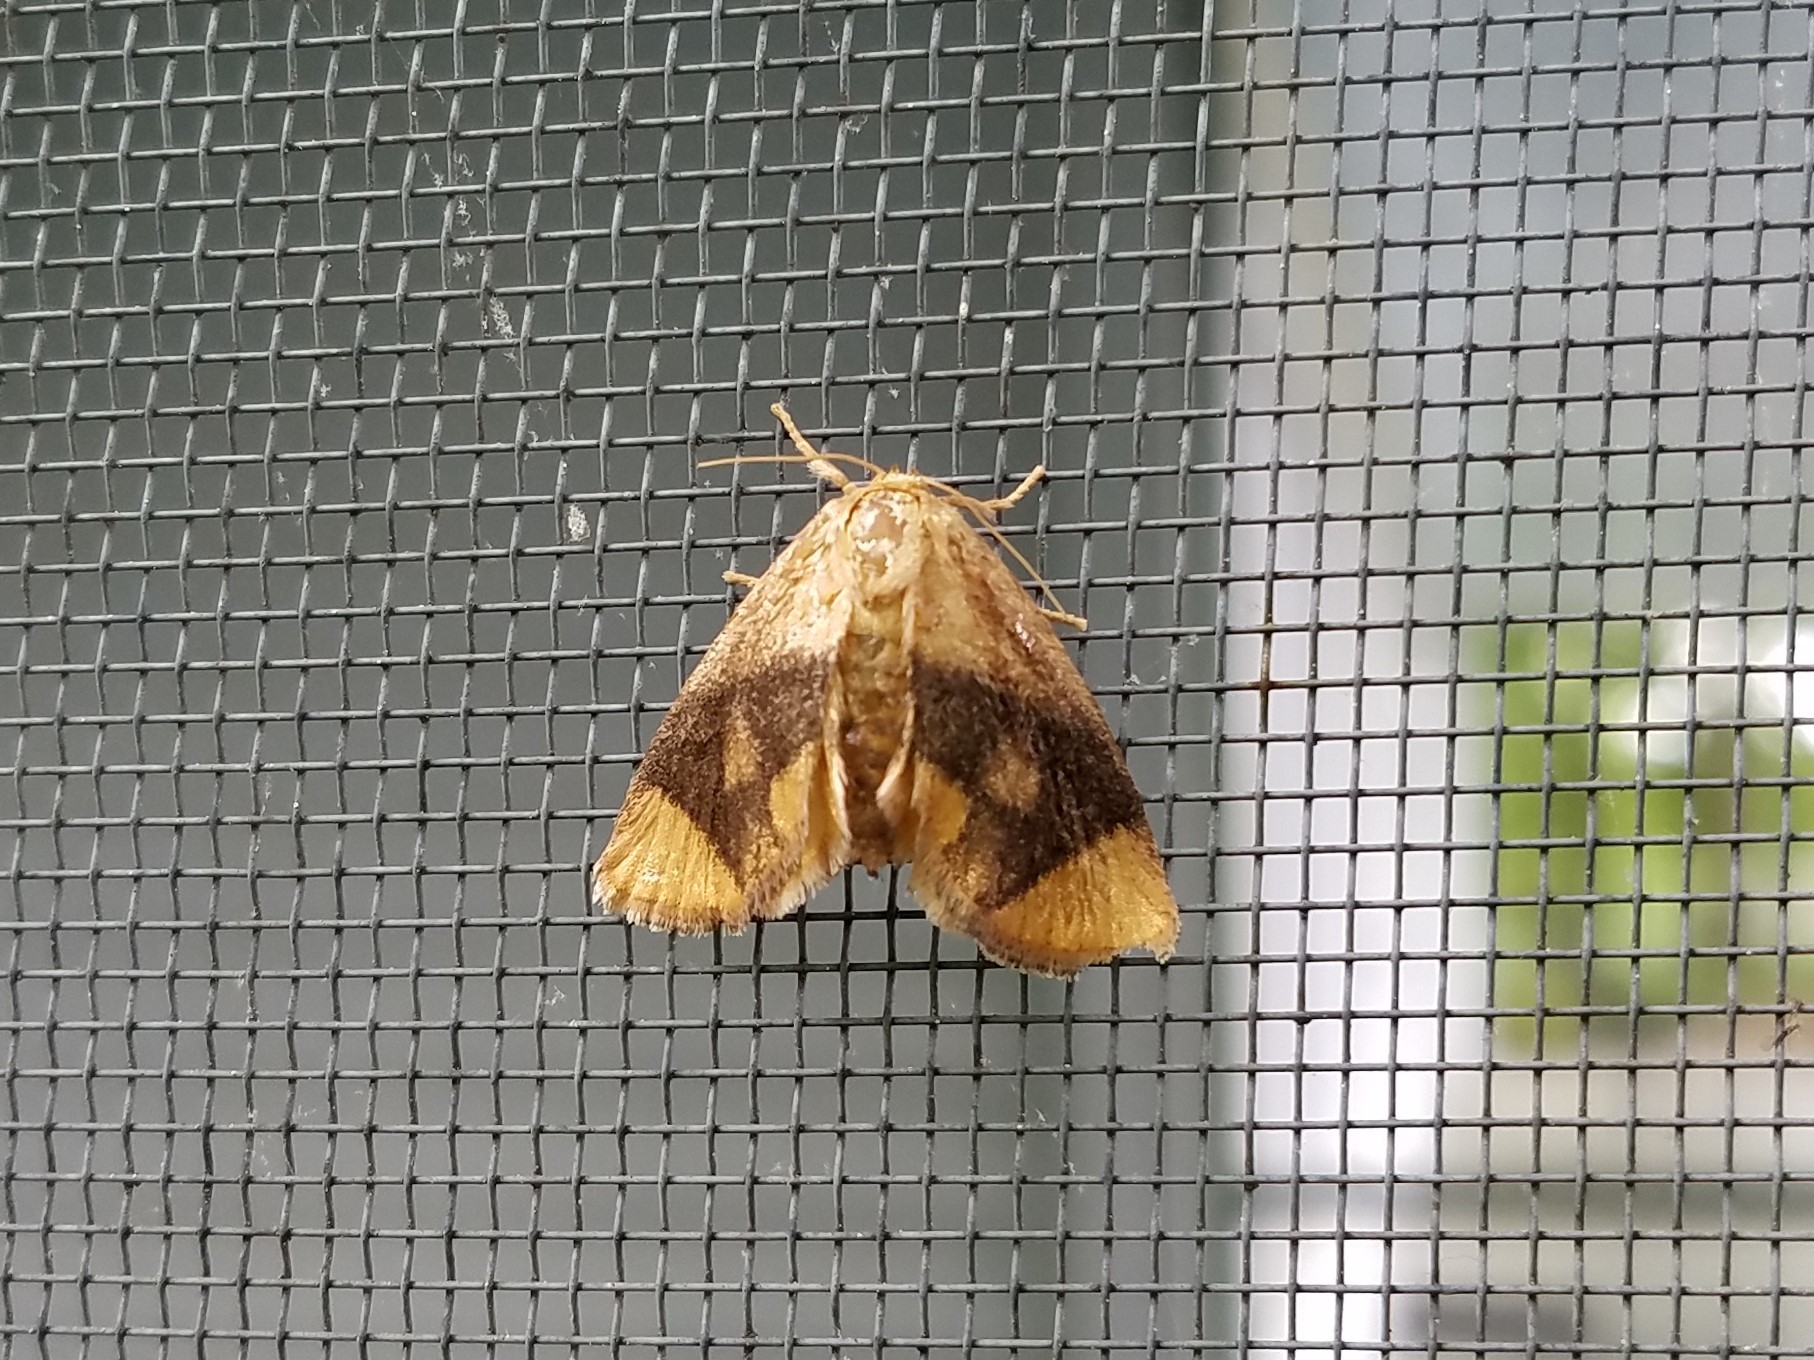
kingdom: Animalia
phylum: Arthropoda
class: Insecta
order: Lepidoptera
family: Limacodidae
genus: Apoda
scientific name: Apoda y-inversa
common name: Yellow-collared slug moth
